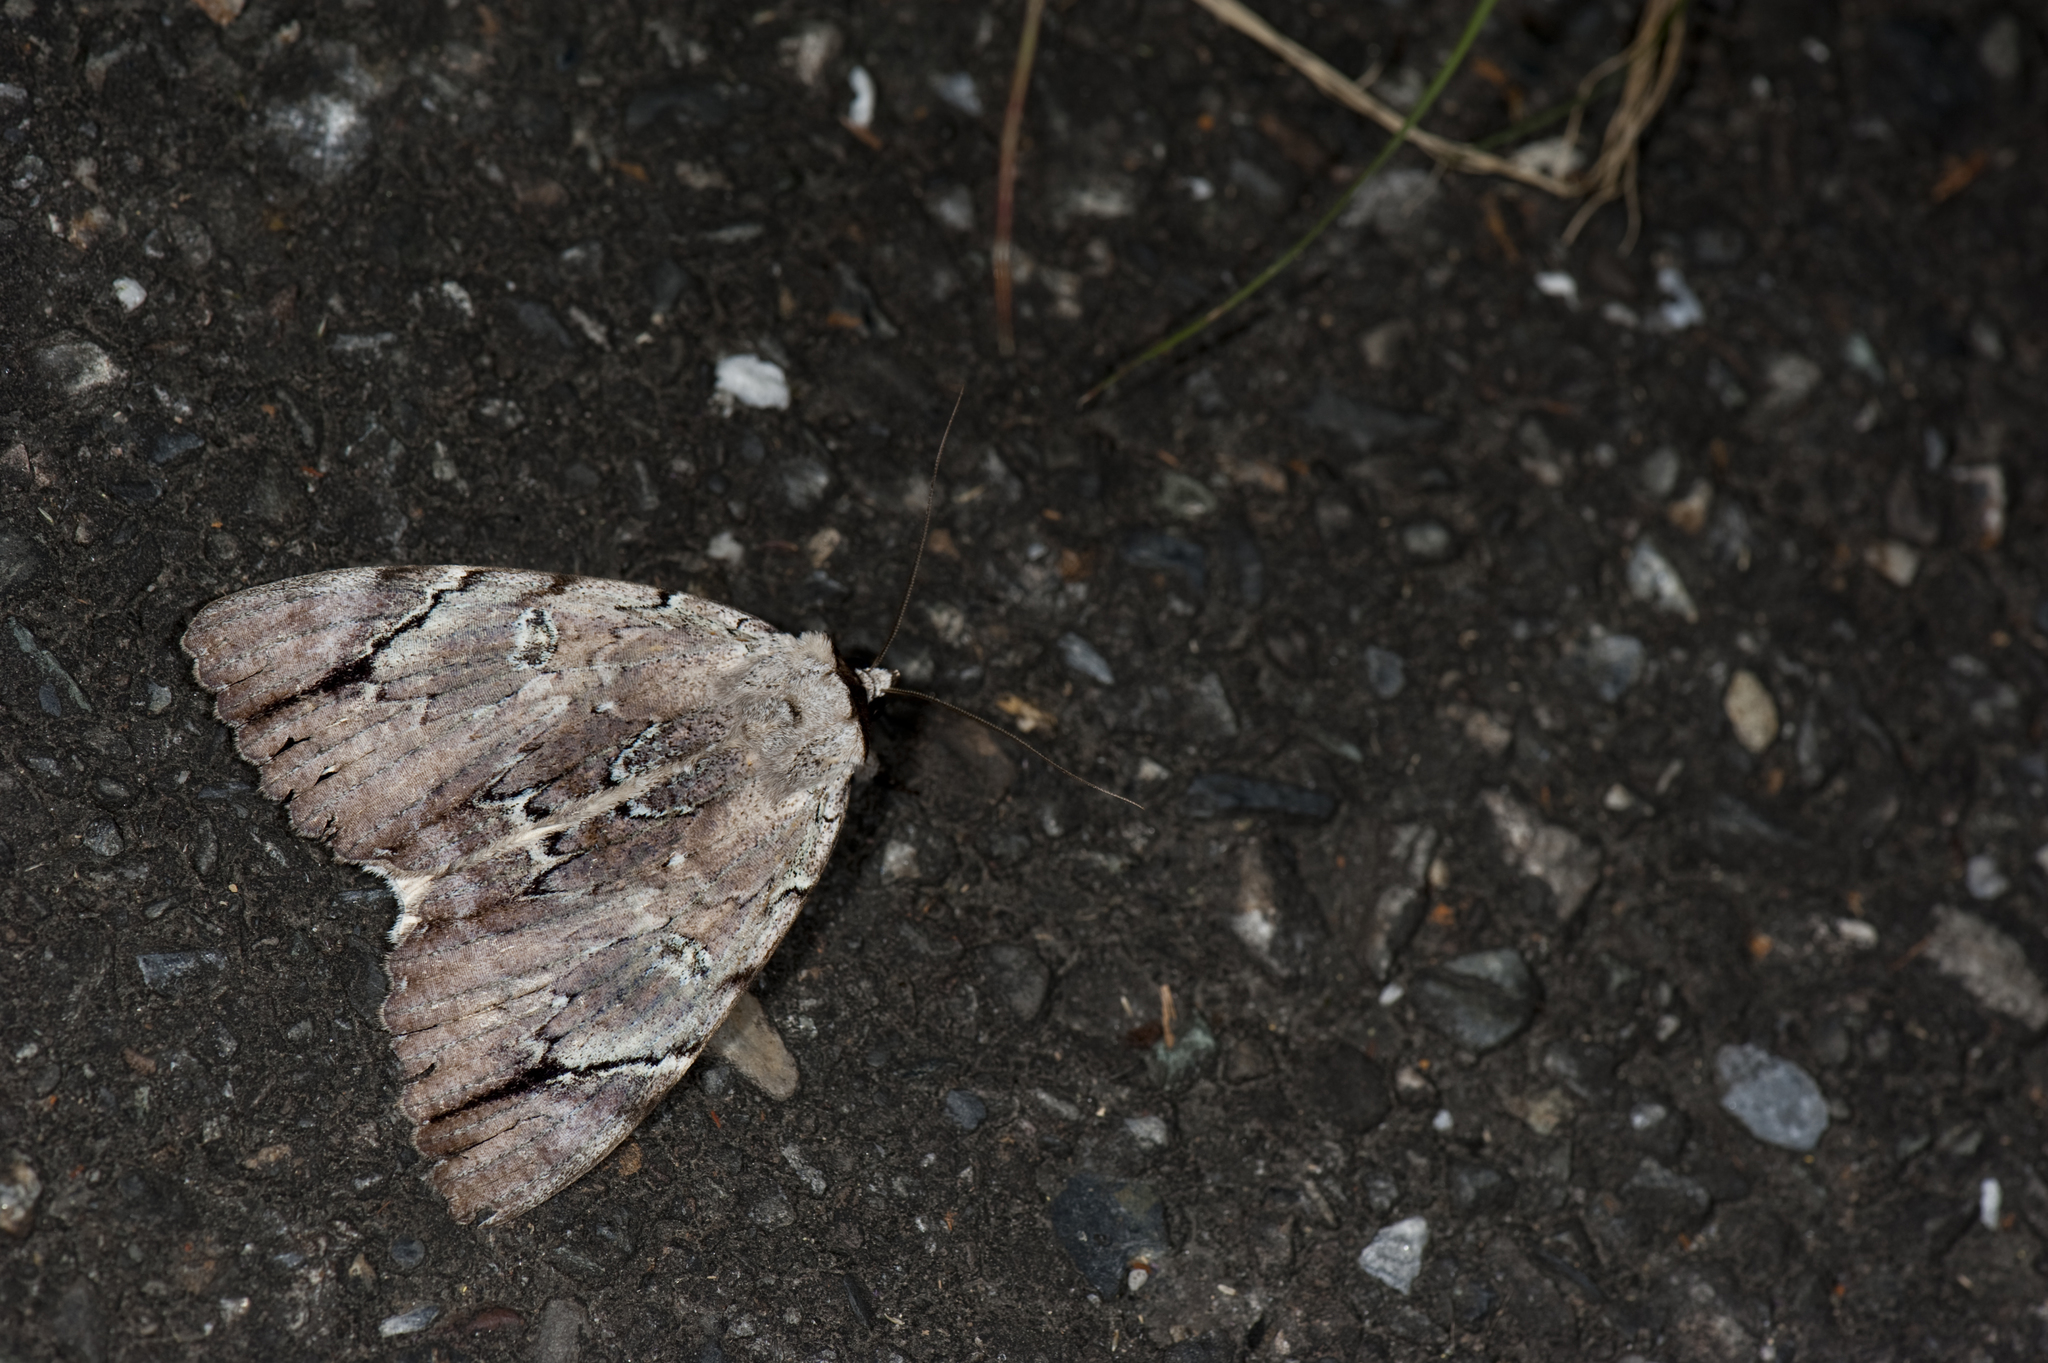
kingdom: Animalia
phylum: Arthropoda
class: Insecta
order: Lepidoptera
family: Erebidae
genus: Catocala
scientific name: Catocala nivea
